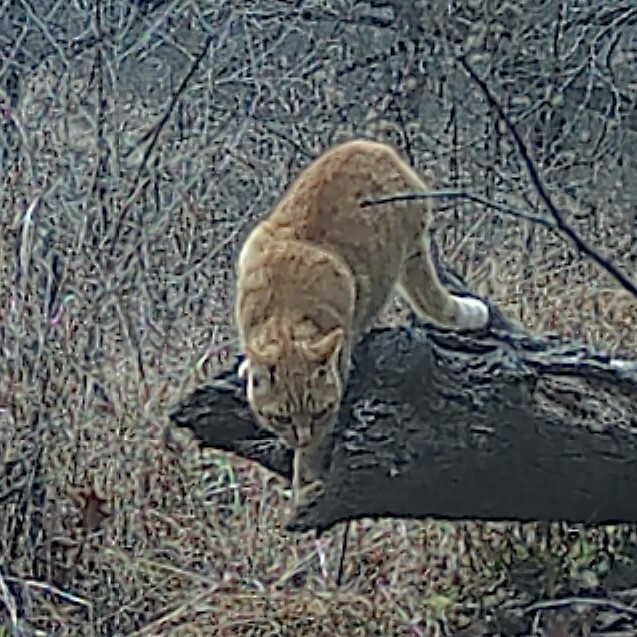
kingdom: Animalia
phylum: Chordata
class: Mammalia
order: Carnivora
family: Felidae
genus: Felis
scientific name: Felis catus
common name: Domestic cat
